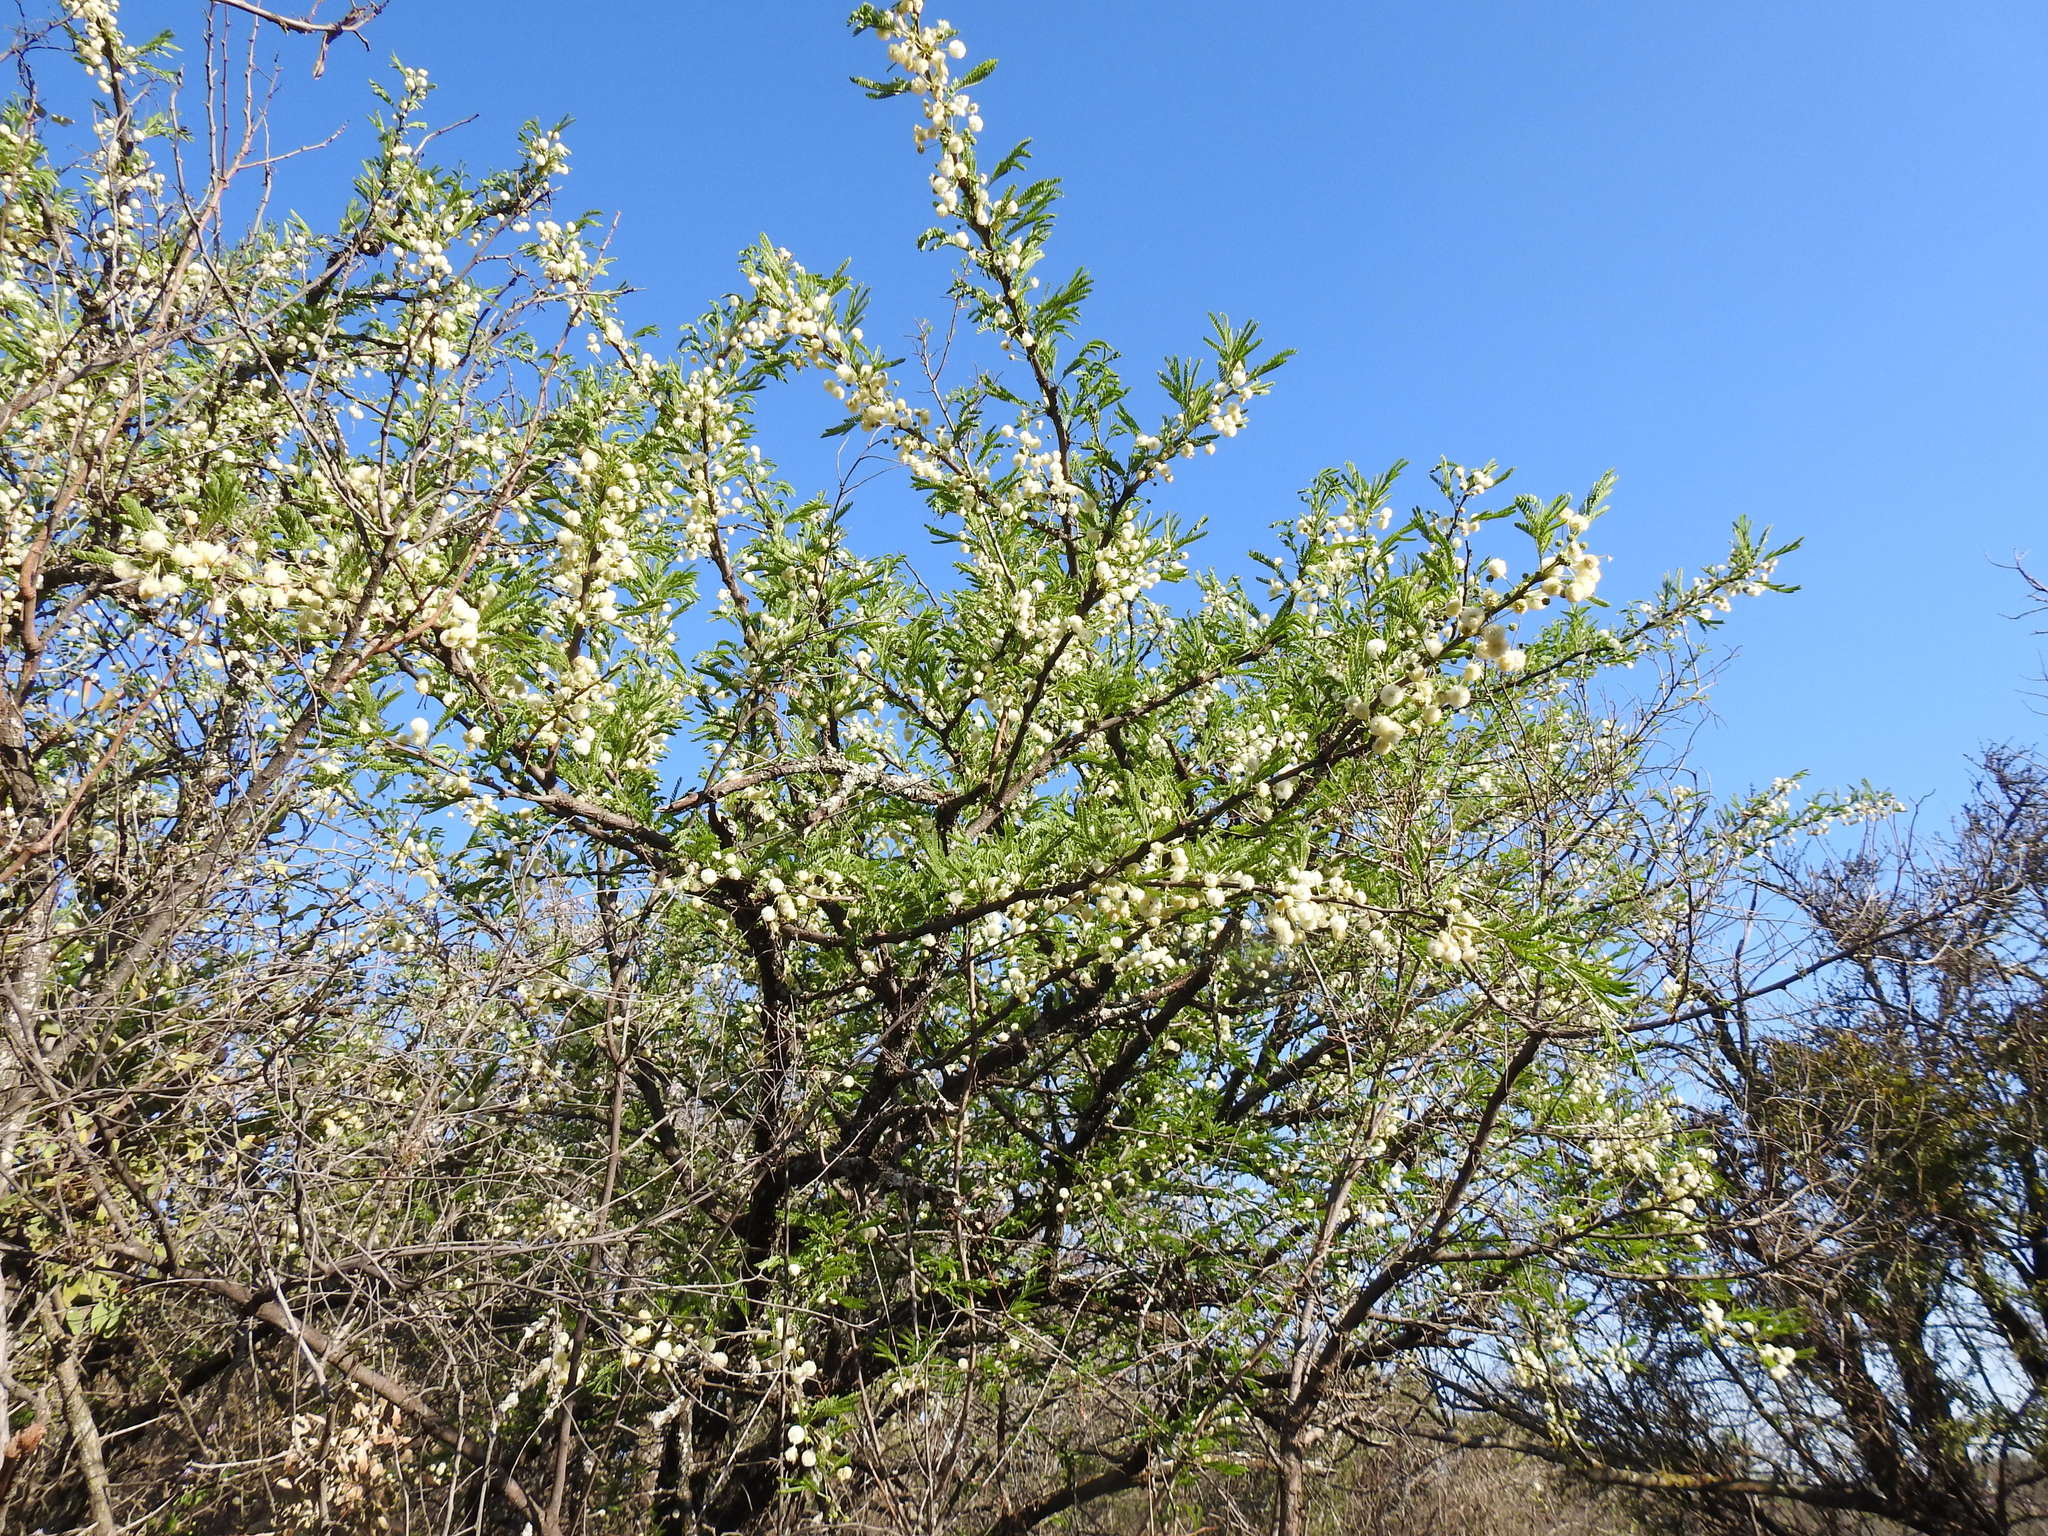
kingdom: Plantae
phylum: Tracheophyta
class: Magnoliopsida
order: Fabales
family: Fabaceae
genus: Vachellia
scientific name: Vachellia robusta
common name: Ankle thorn
